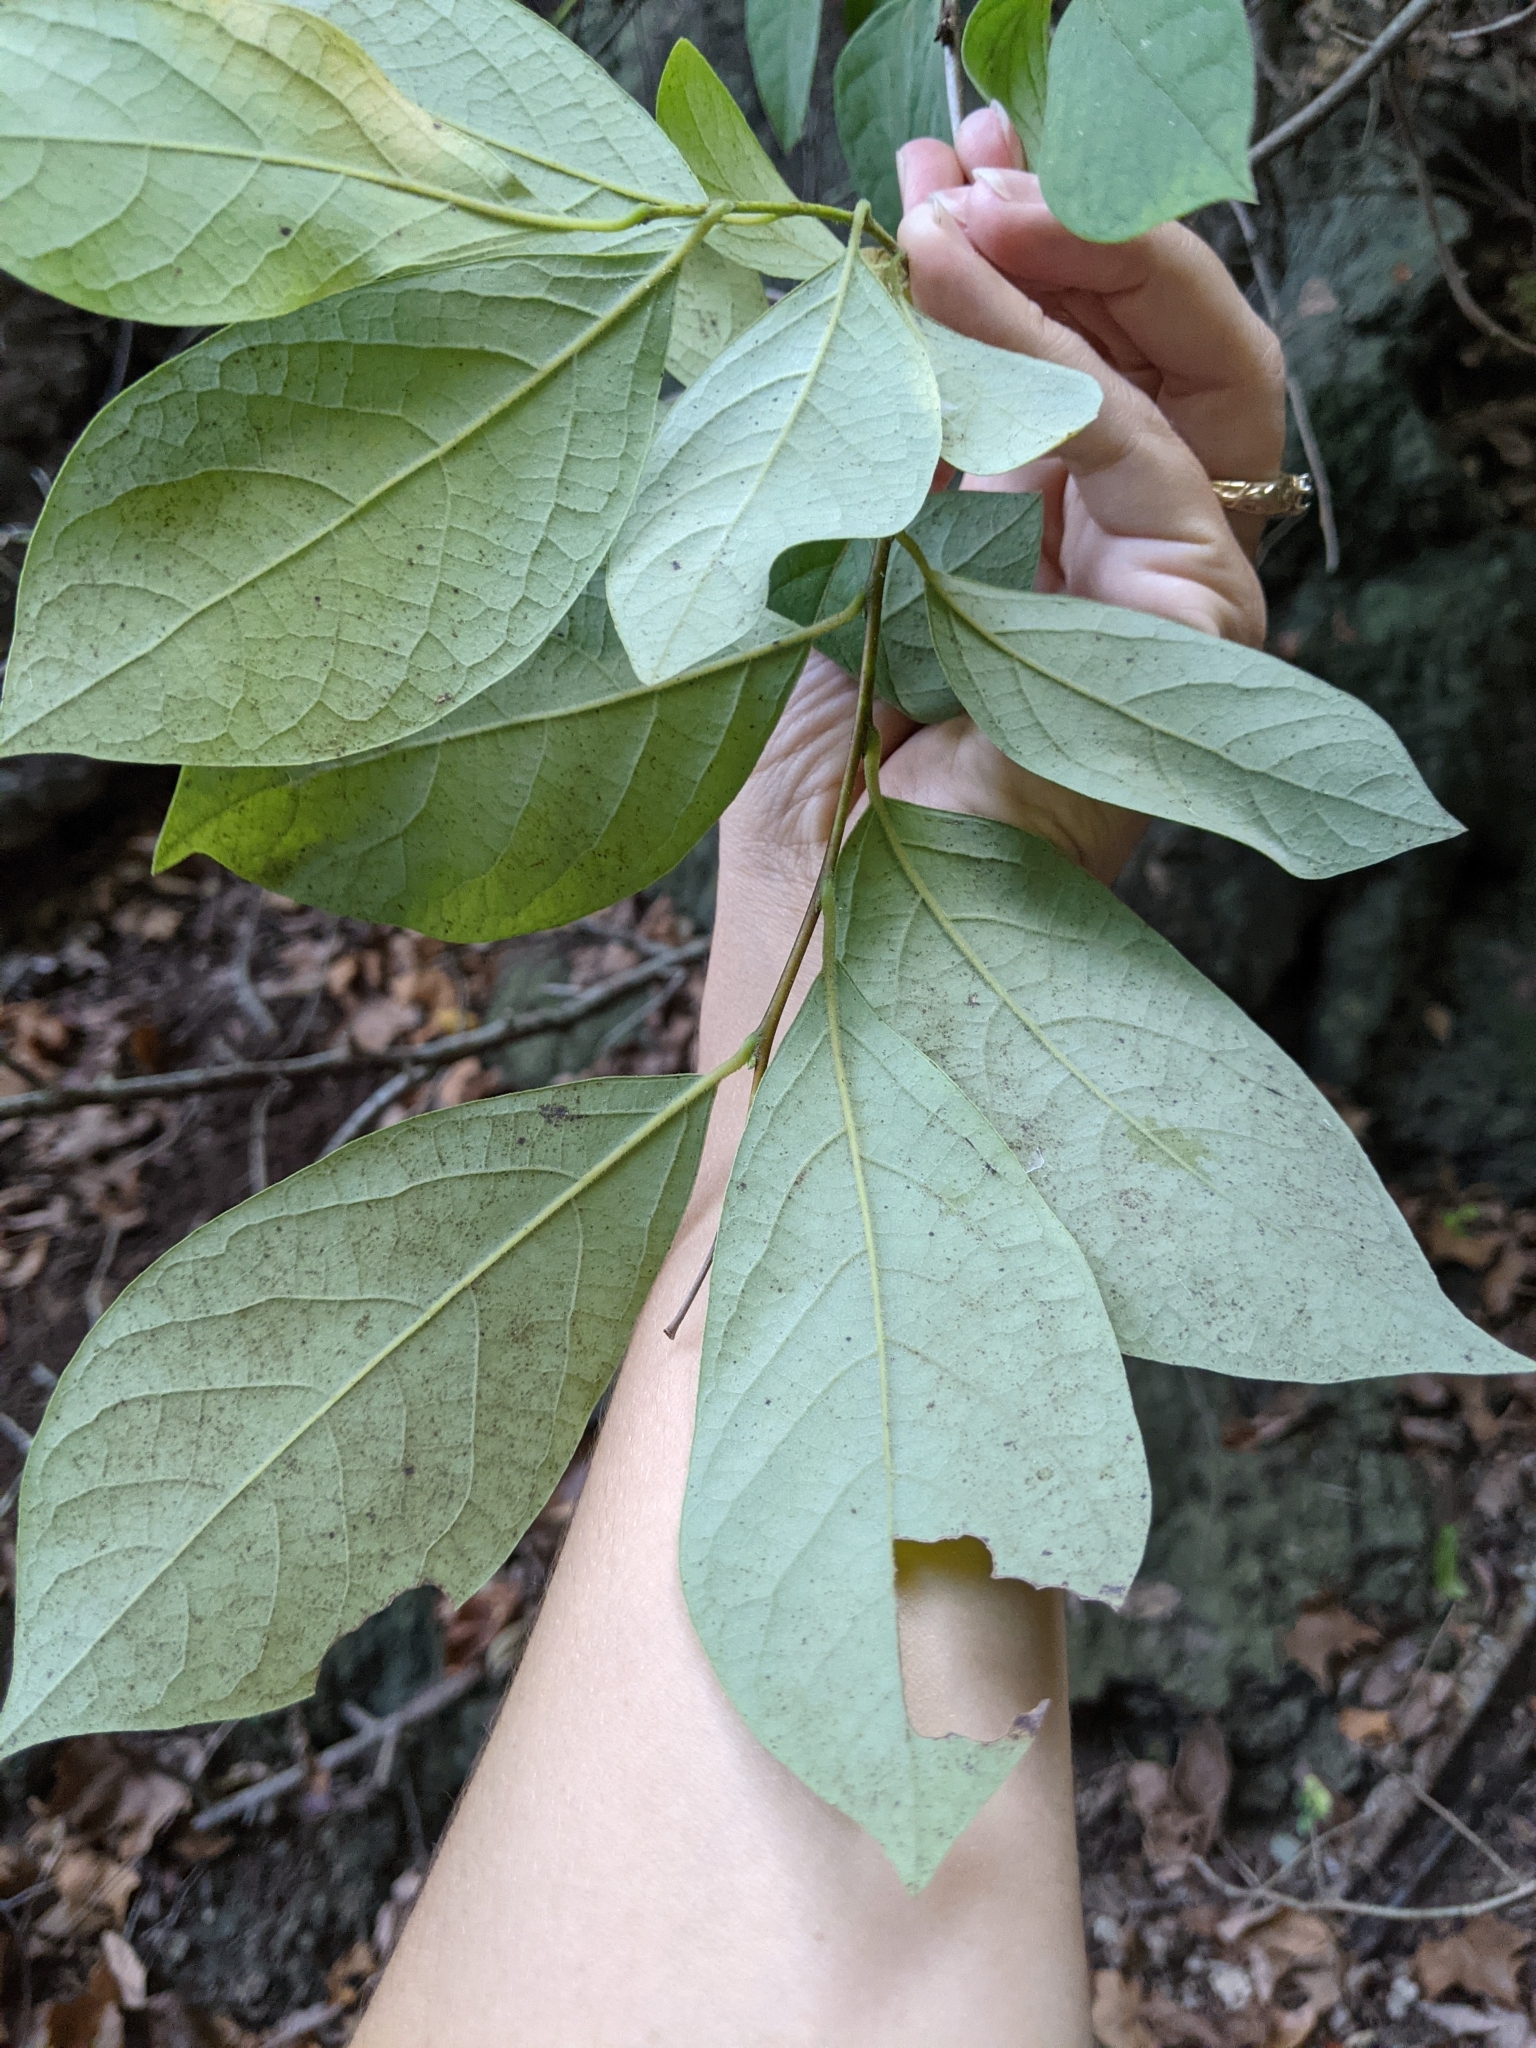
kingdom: Plantae
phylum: Tracheophyta
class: Magnoliopsida
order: Laurales
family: Lauraceae
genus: Lindera
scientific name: Lindera benzoin
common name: Spicebush
